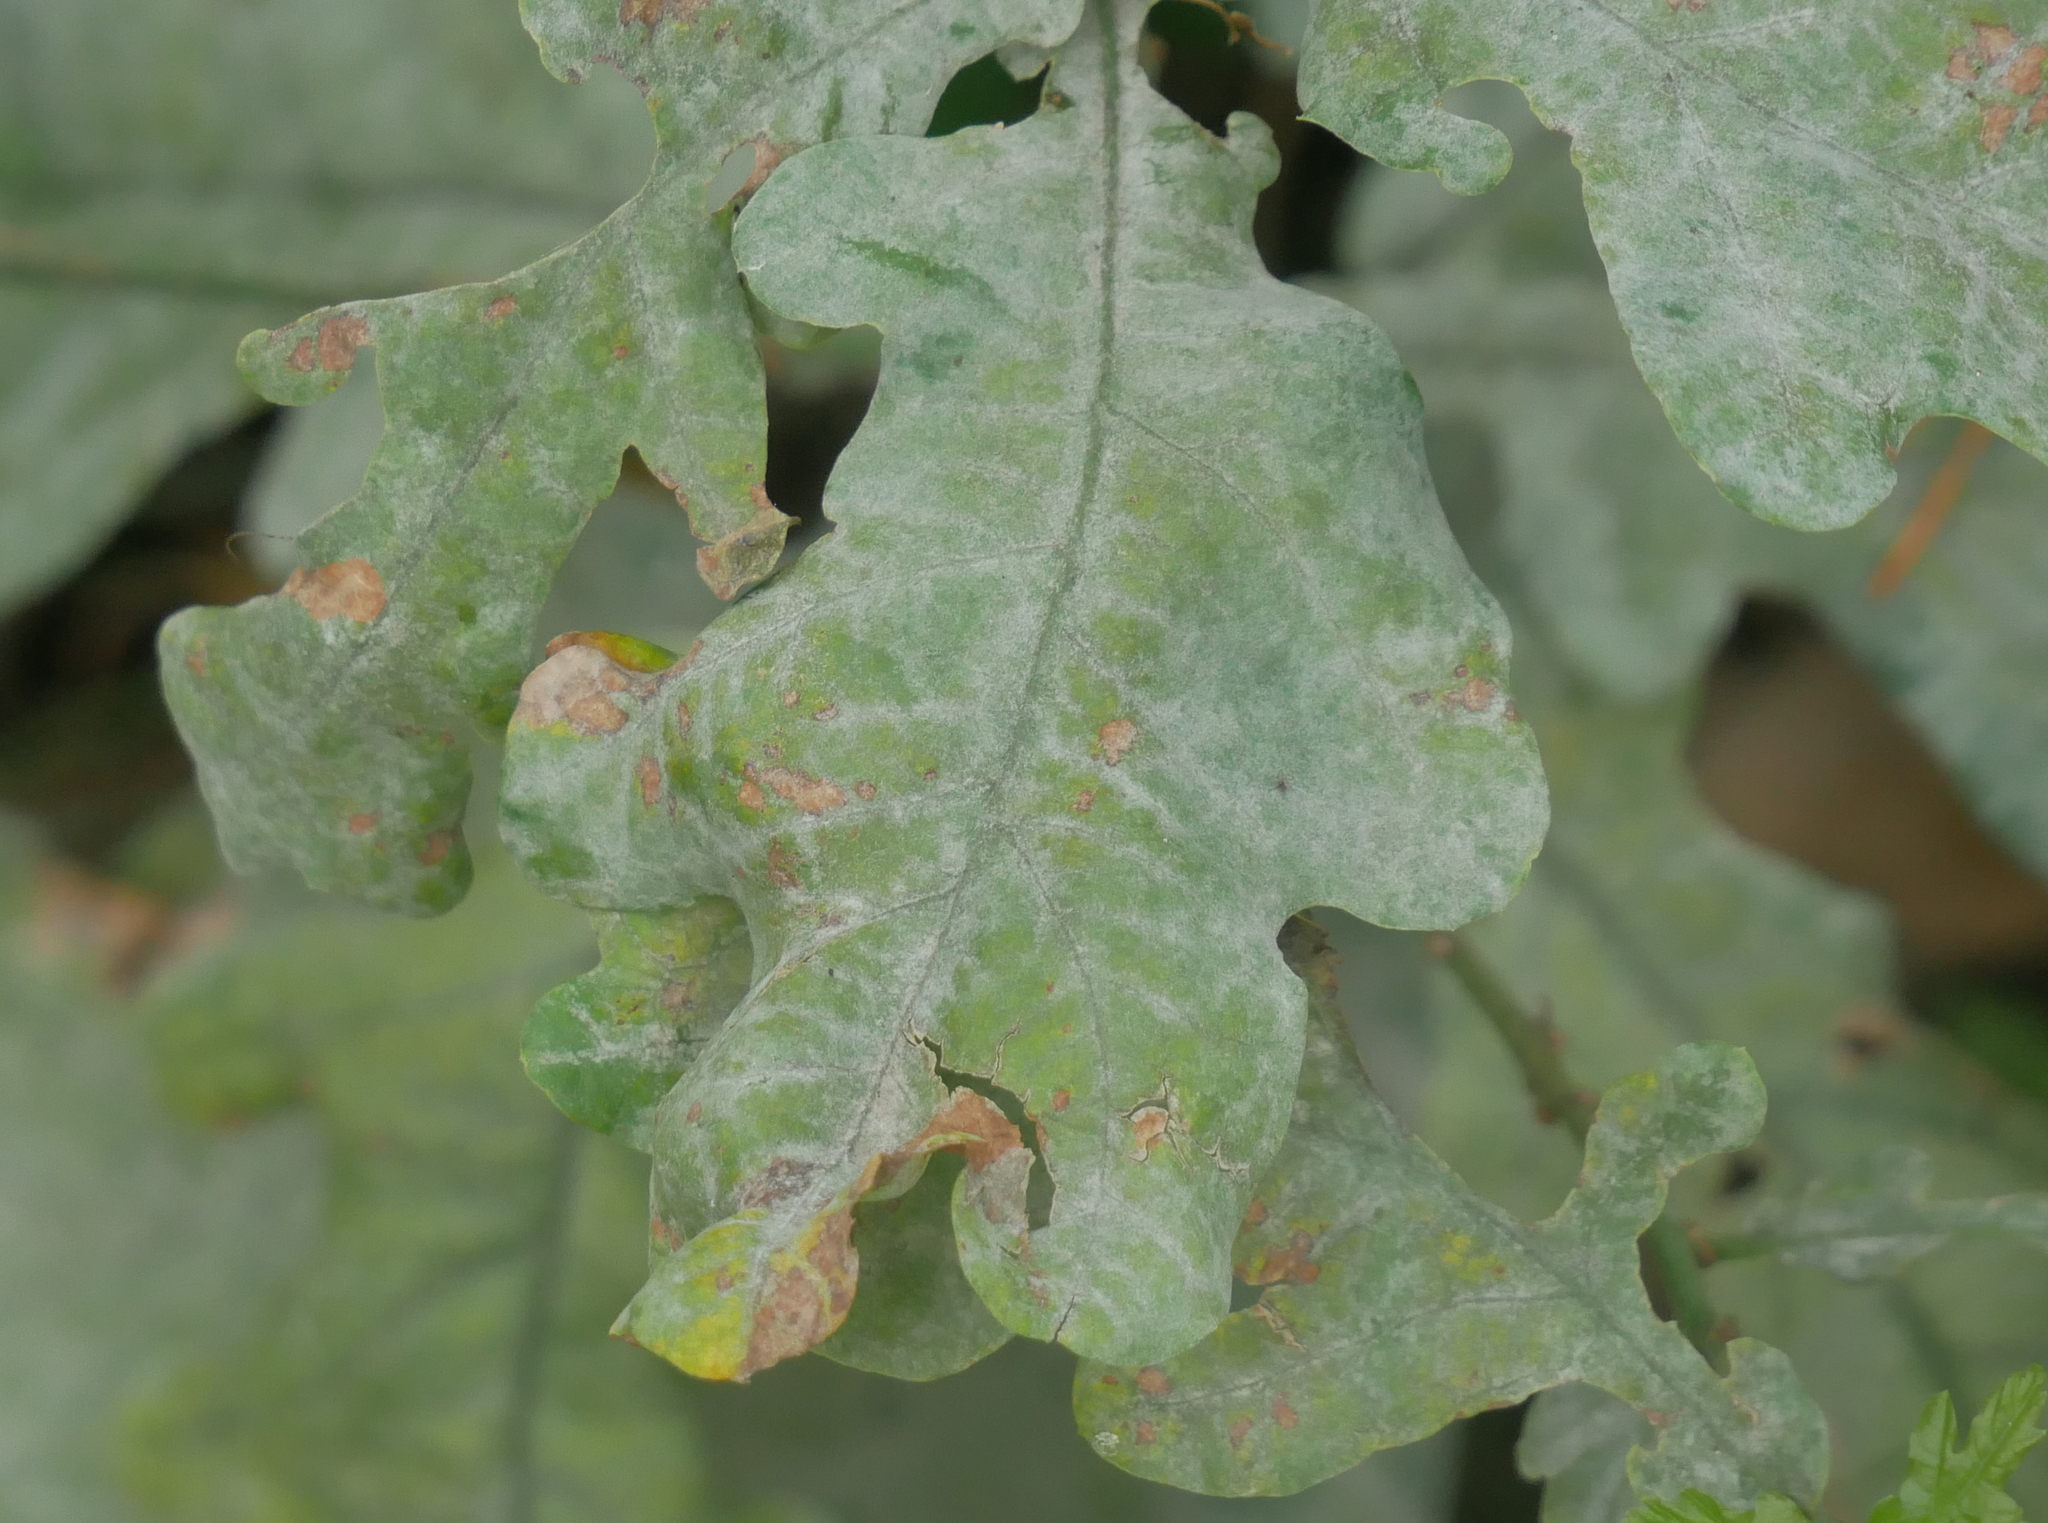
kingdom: Fungi
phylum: Ascomycota
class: Leotiomycetes
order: Helotiales
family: Erysiphaceae
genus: Erysiphe
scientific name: Erysiphe
